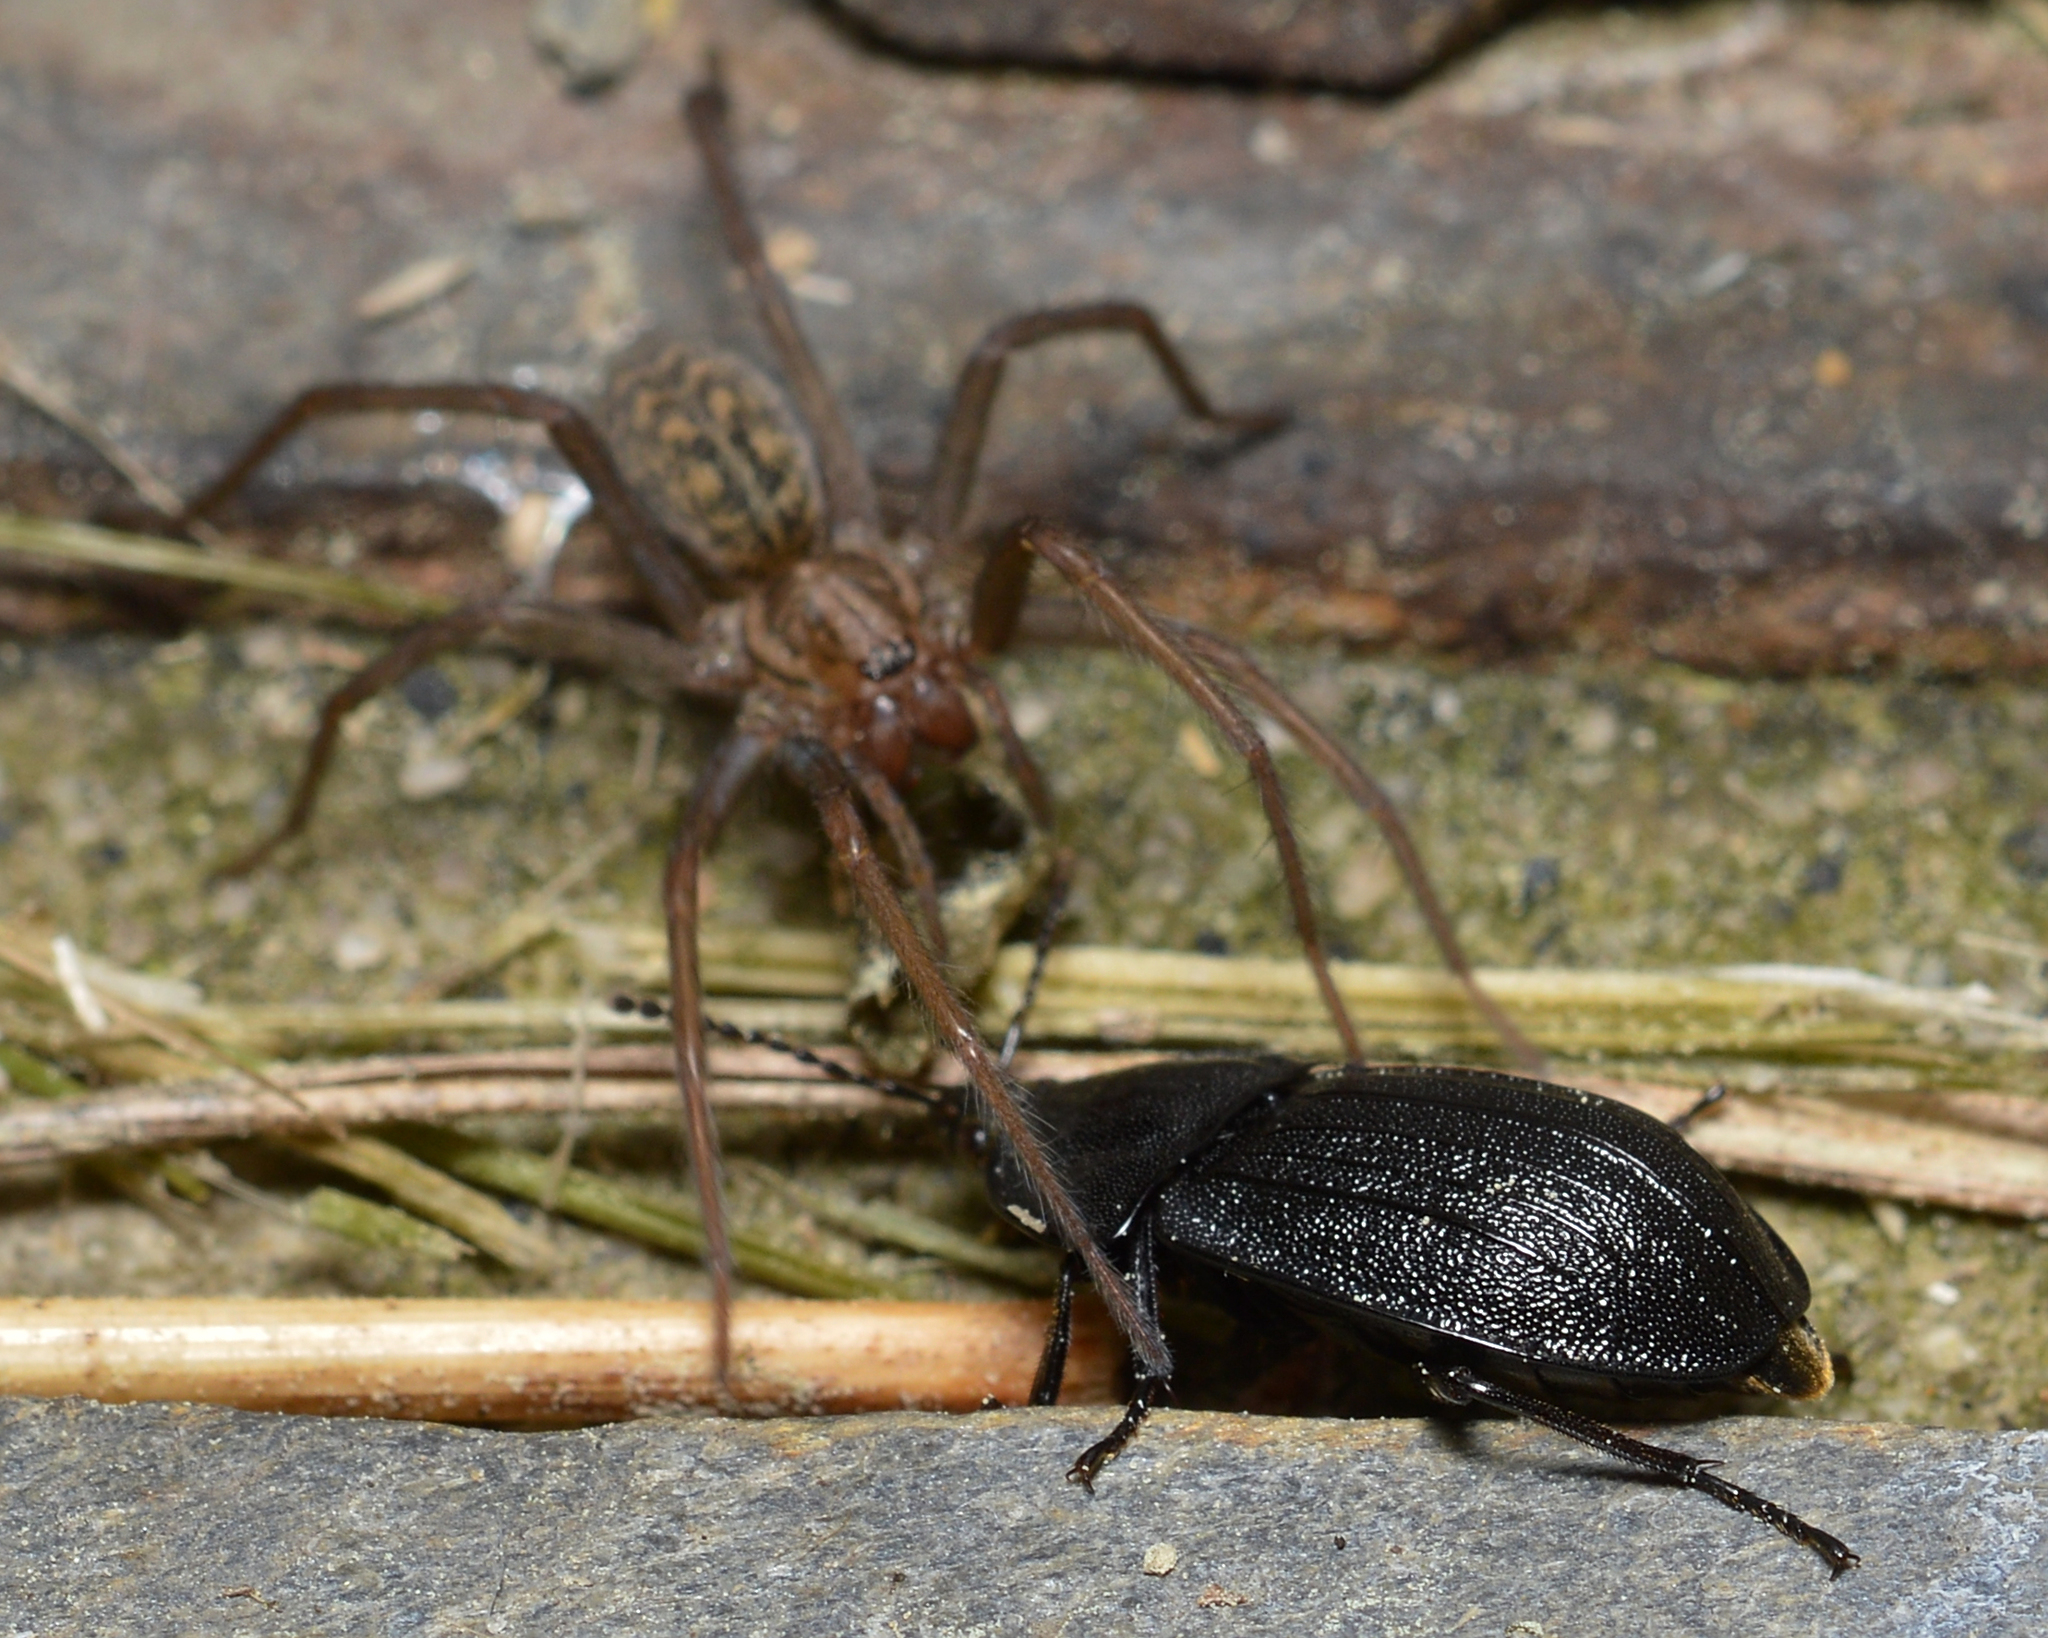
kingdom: Animalia
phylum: Arthropoda
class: Arachnida
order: Araneae
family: Agelenidae
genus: Eratigena
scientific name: Eratigena atrica
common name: Giant house spider
